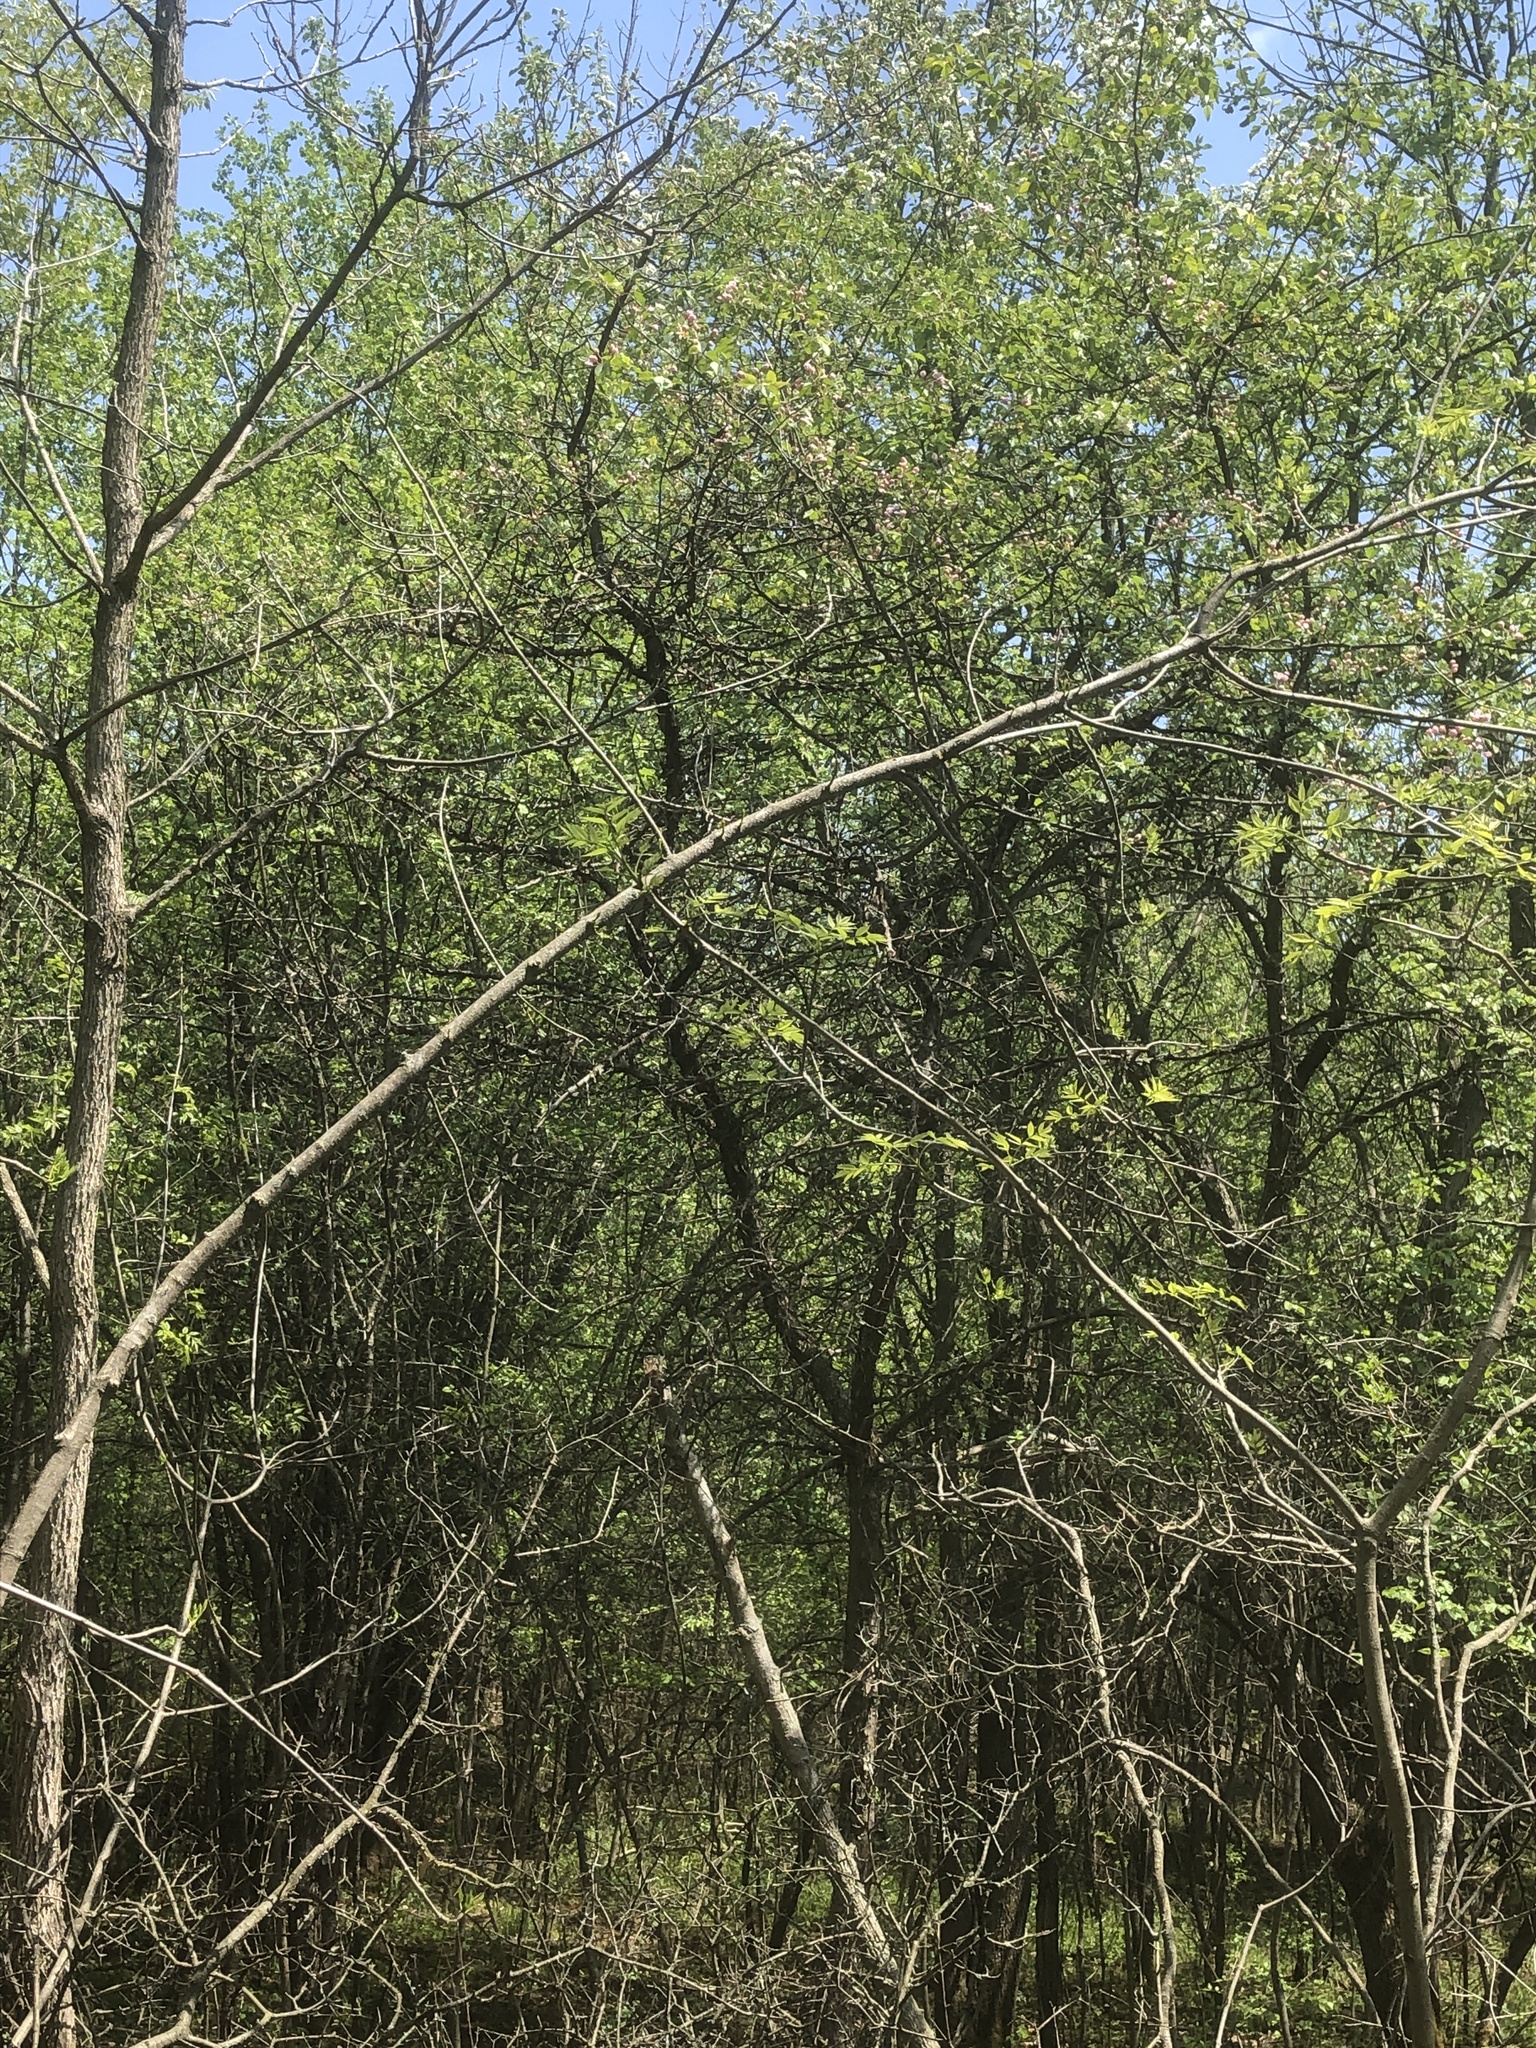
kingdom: Plantae
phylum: Tracheophyta
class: Magnoliopsida
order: Rosales
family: Rosaceae
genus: Malus
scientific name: Malus coronaria
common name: Sweet crab apple
